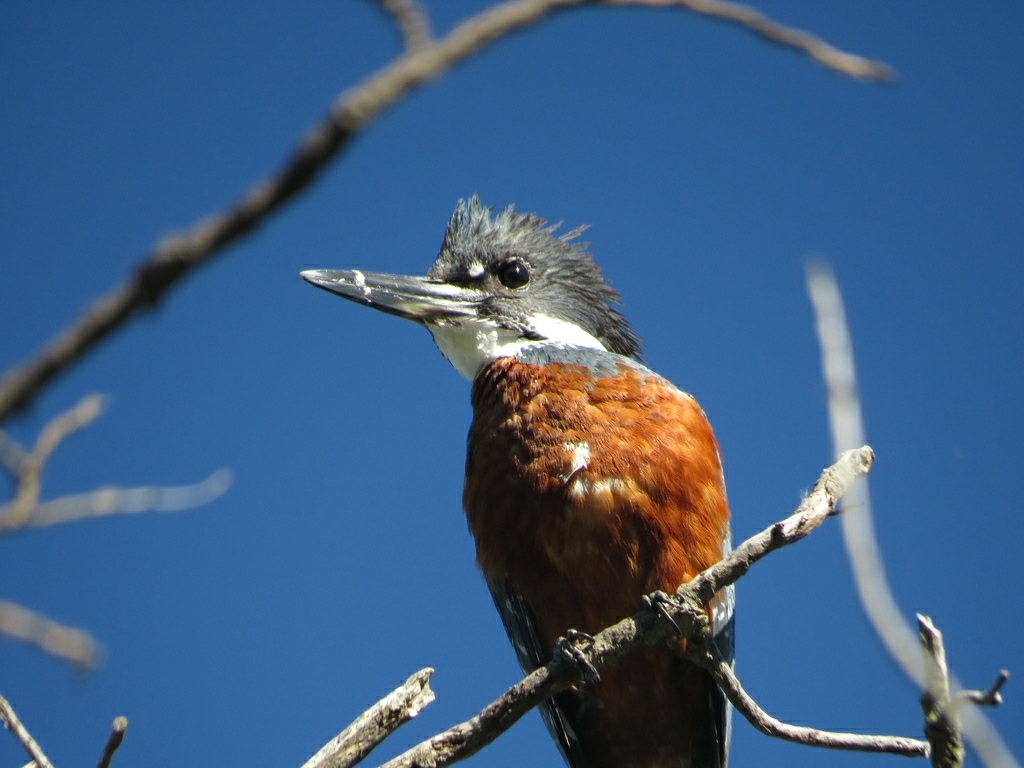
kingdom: Animalia
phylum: Chordata
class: Aves
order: Coraciiformes
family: Alcedinidae
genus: Megaceryle
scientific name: Megaceryle torquata
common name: Ringed kingfisher
